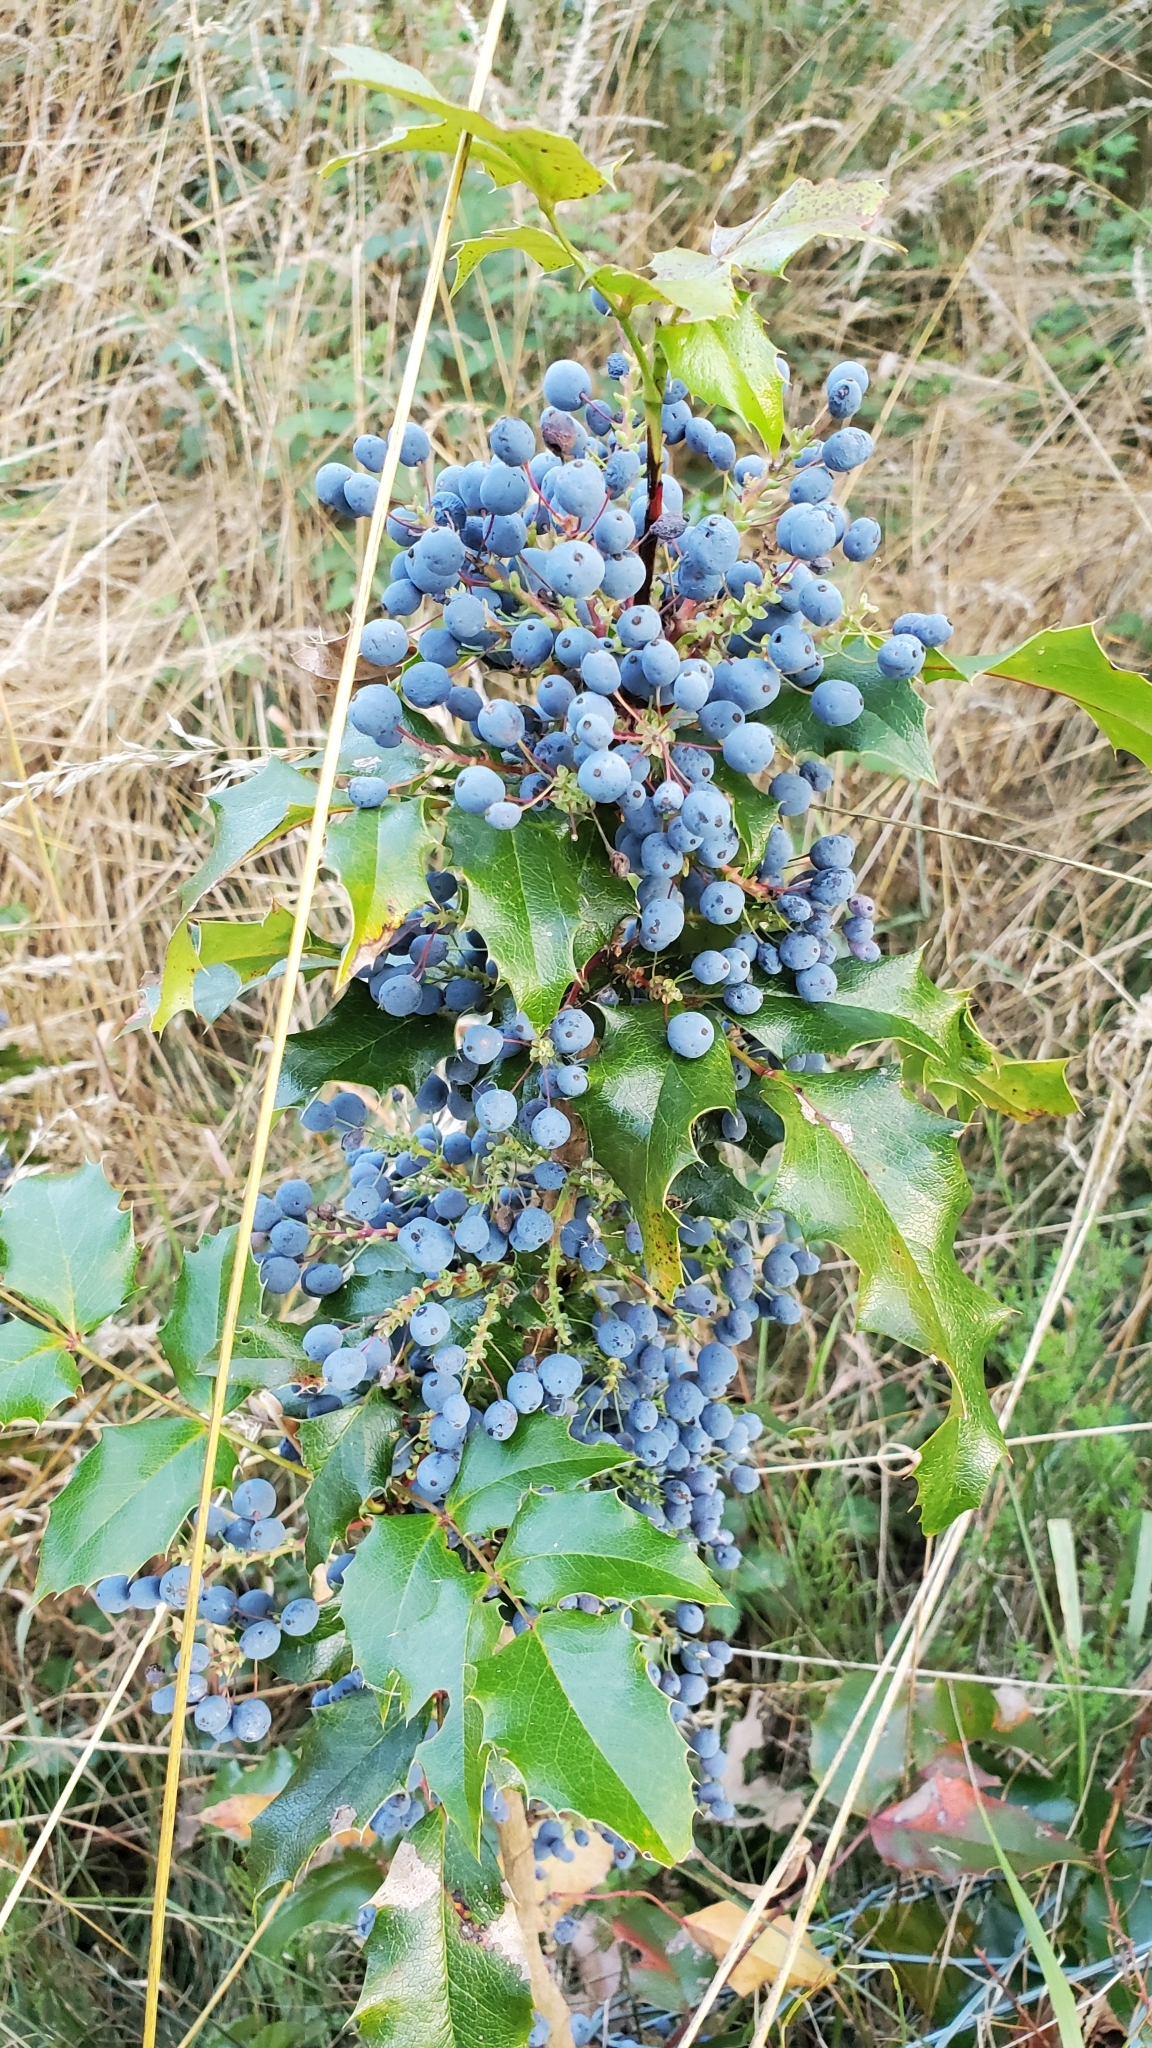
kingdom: Plantae
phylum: Tracheophyta
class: Magnoliopsida
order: Ranunculales
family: Berberidaceae
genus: Mahonia
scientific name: Mahonia aquifolium
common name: Oregon-grape
